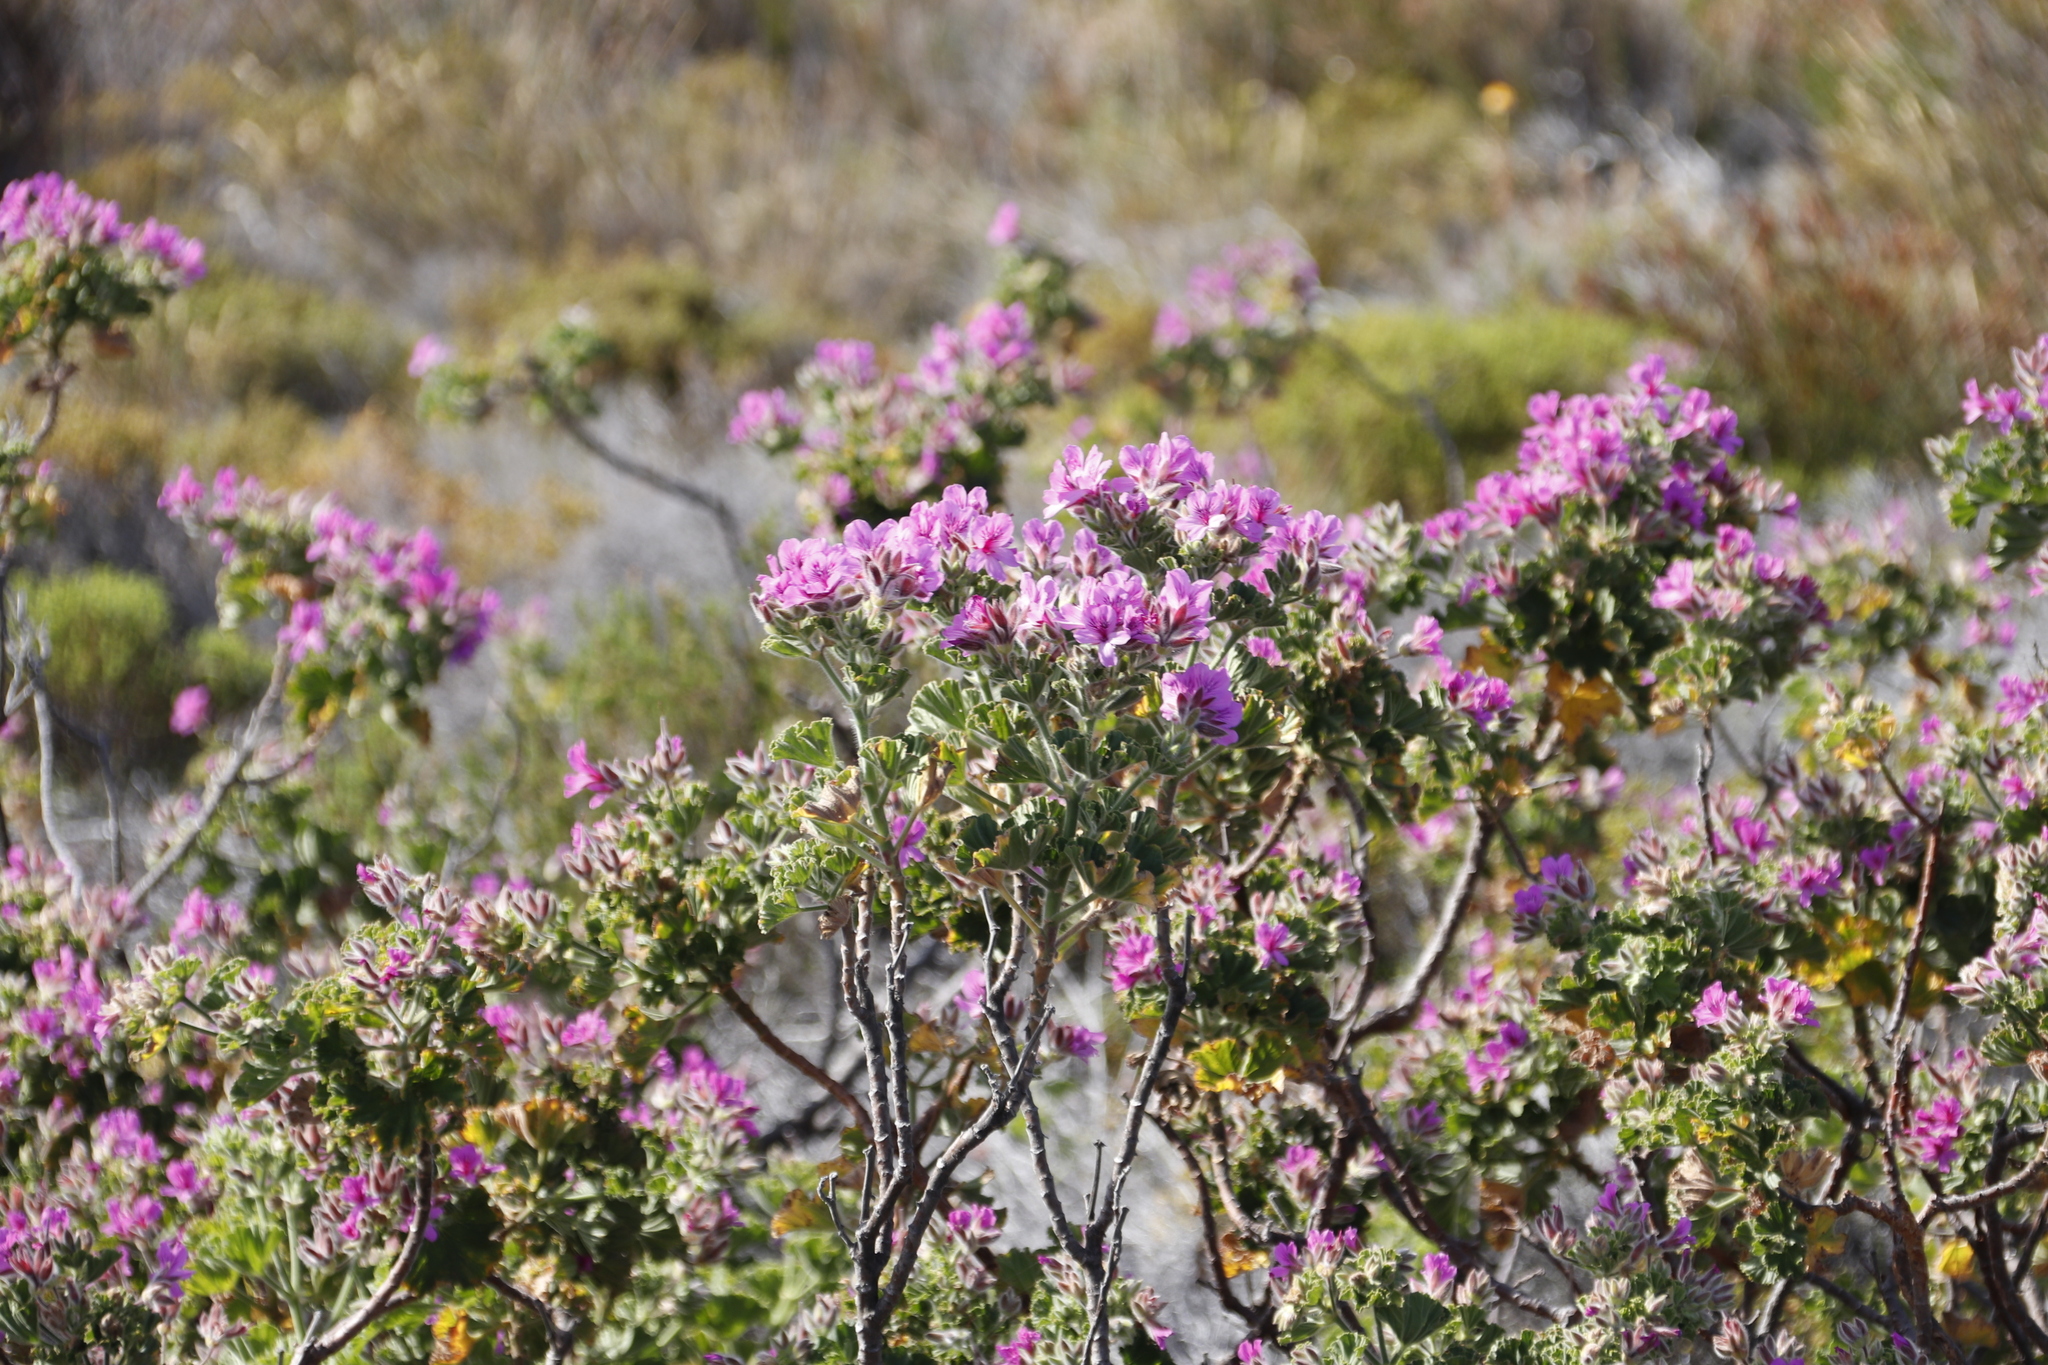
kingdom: Plantae
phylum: Tracheophyta
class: Magnoliopsida
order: Geraniales
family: Geraniaceae
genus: Pelargonium
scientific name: Pelargonium cucullatum
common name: Tree pelargonium
